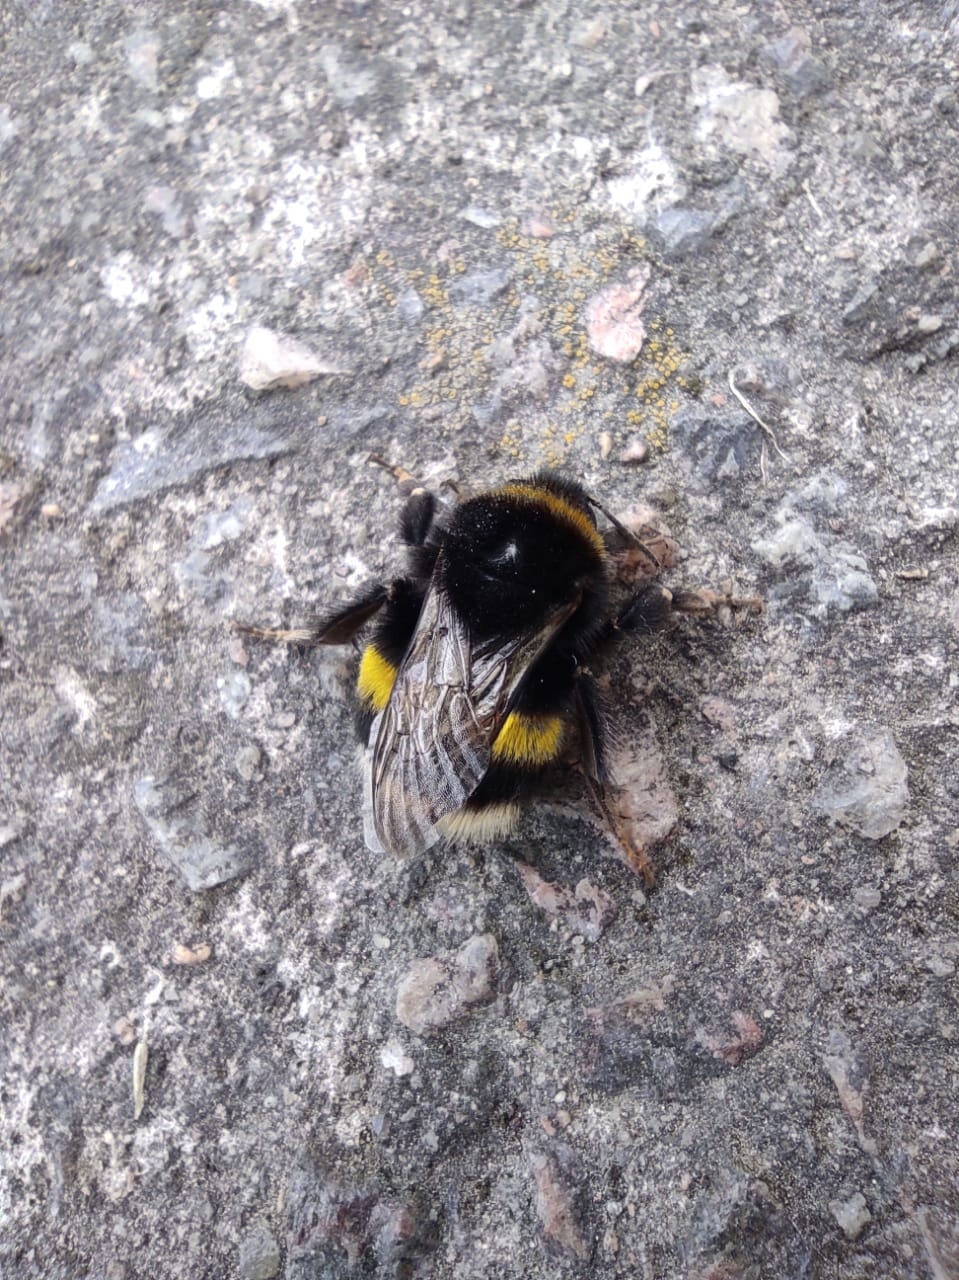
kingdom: Animalia
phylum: Arthropoda
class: Insecta
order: Hymenoptera
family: Apidae
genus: Bombus
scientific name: Bombus
